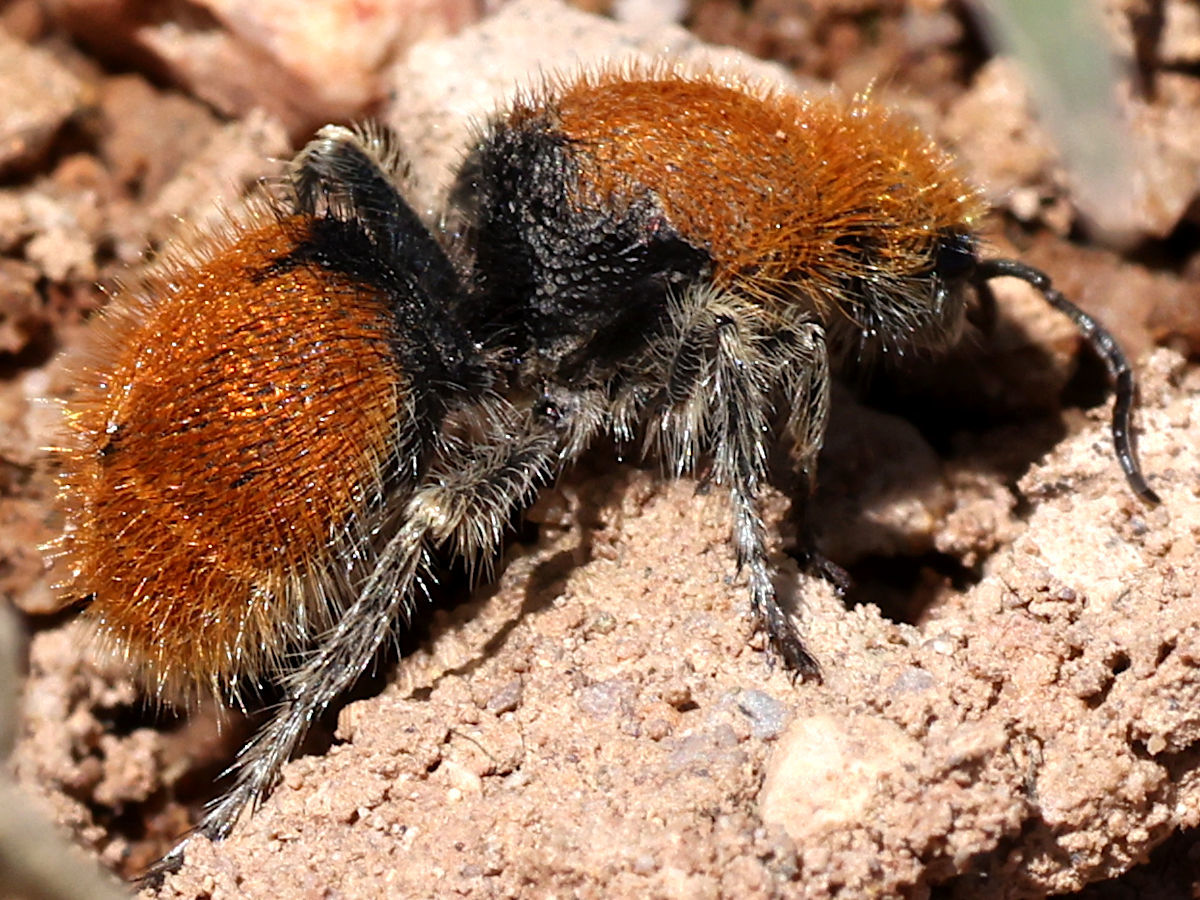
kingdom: Animalia
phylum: Arthropoda
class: Insecta
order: Hymenoptera
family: Mutillidae
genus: Dasymutilla
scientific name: Dasymutilla
